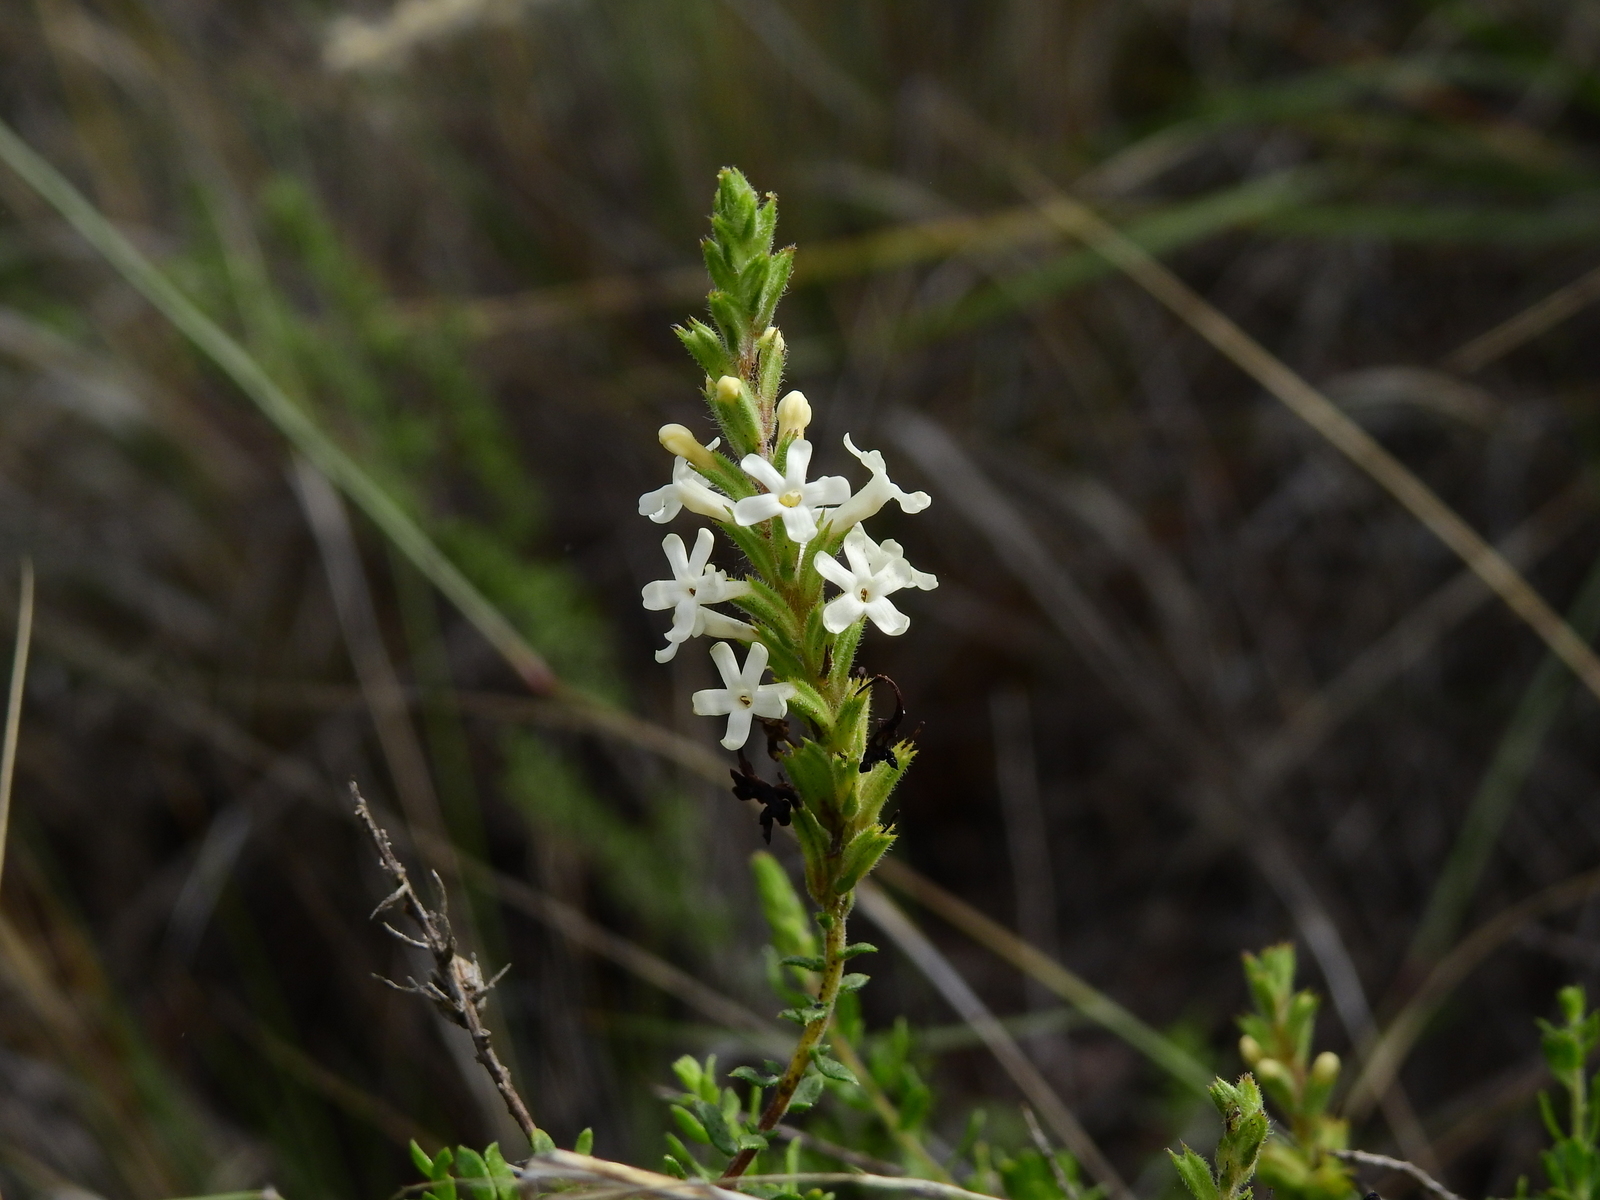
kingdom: Plantae
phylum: Tracheophyta
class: Magnoliopsida
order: Lamiales
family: Verbenaceae
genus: Mulguraea
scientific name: Mulguraea aspera
